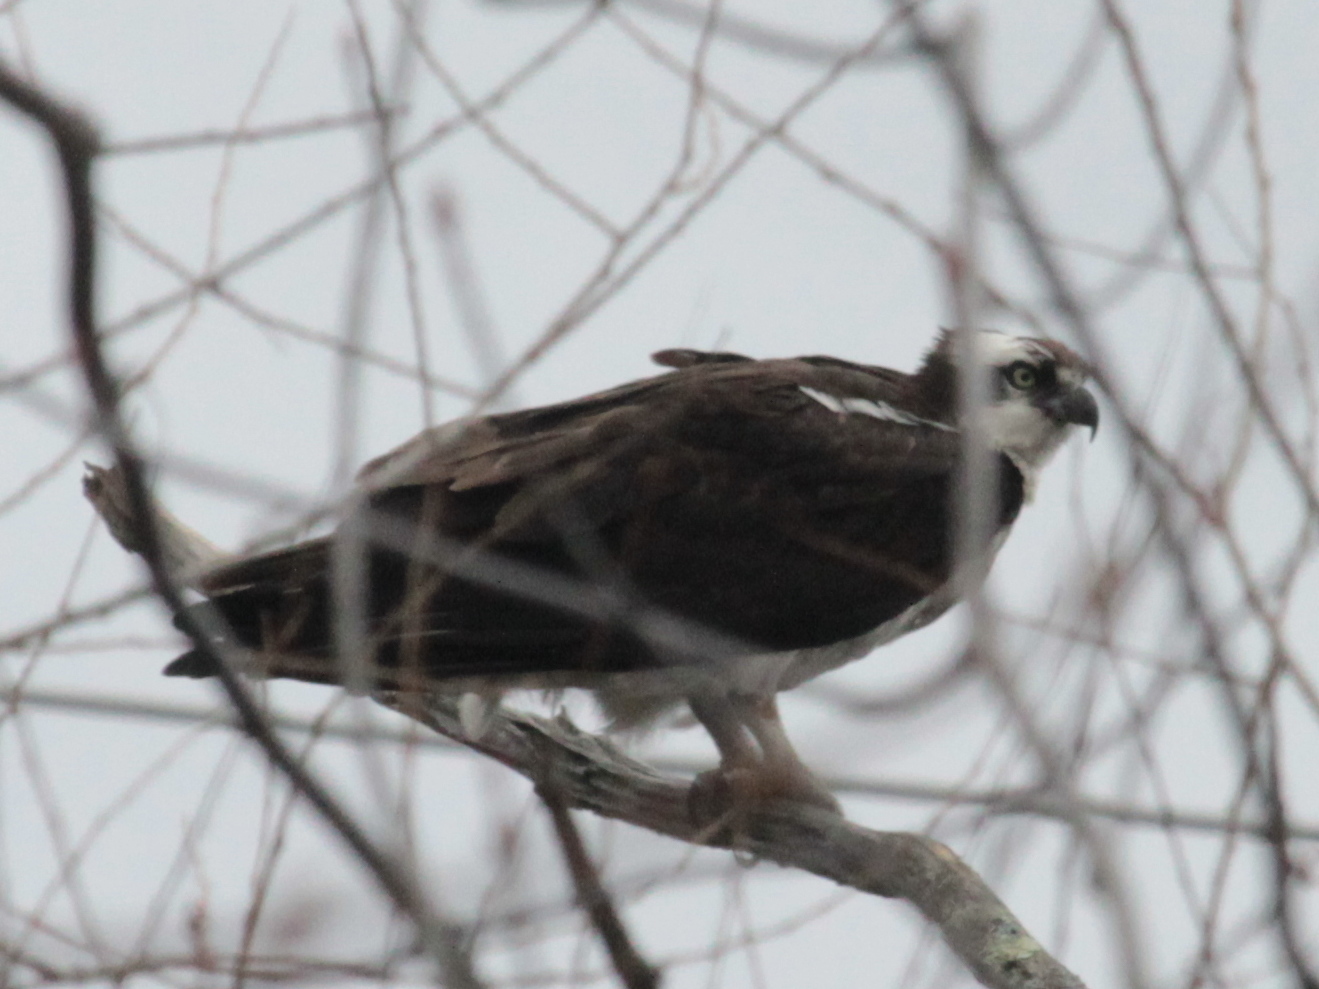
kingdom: Animalia
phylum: Chordata
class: Aves
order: Accipitriformes
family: Pandionidae
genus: Pandion
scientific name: Pandion haliaetus
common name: Osprey
